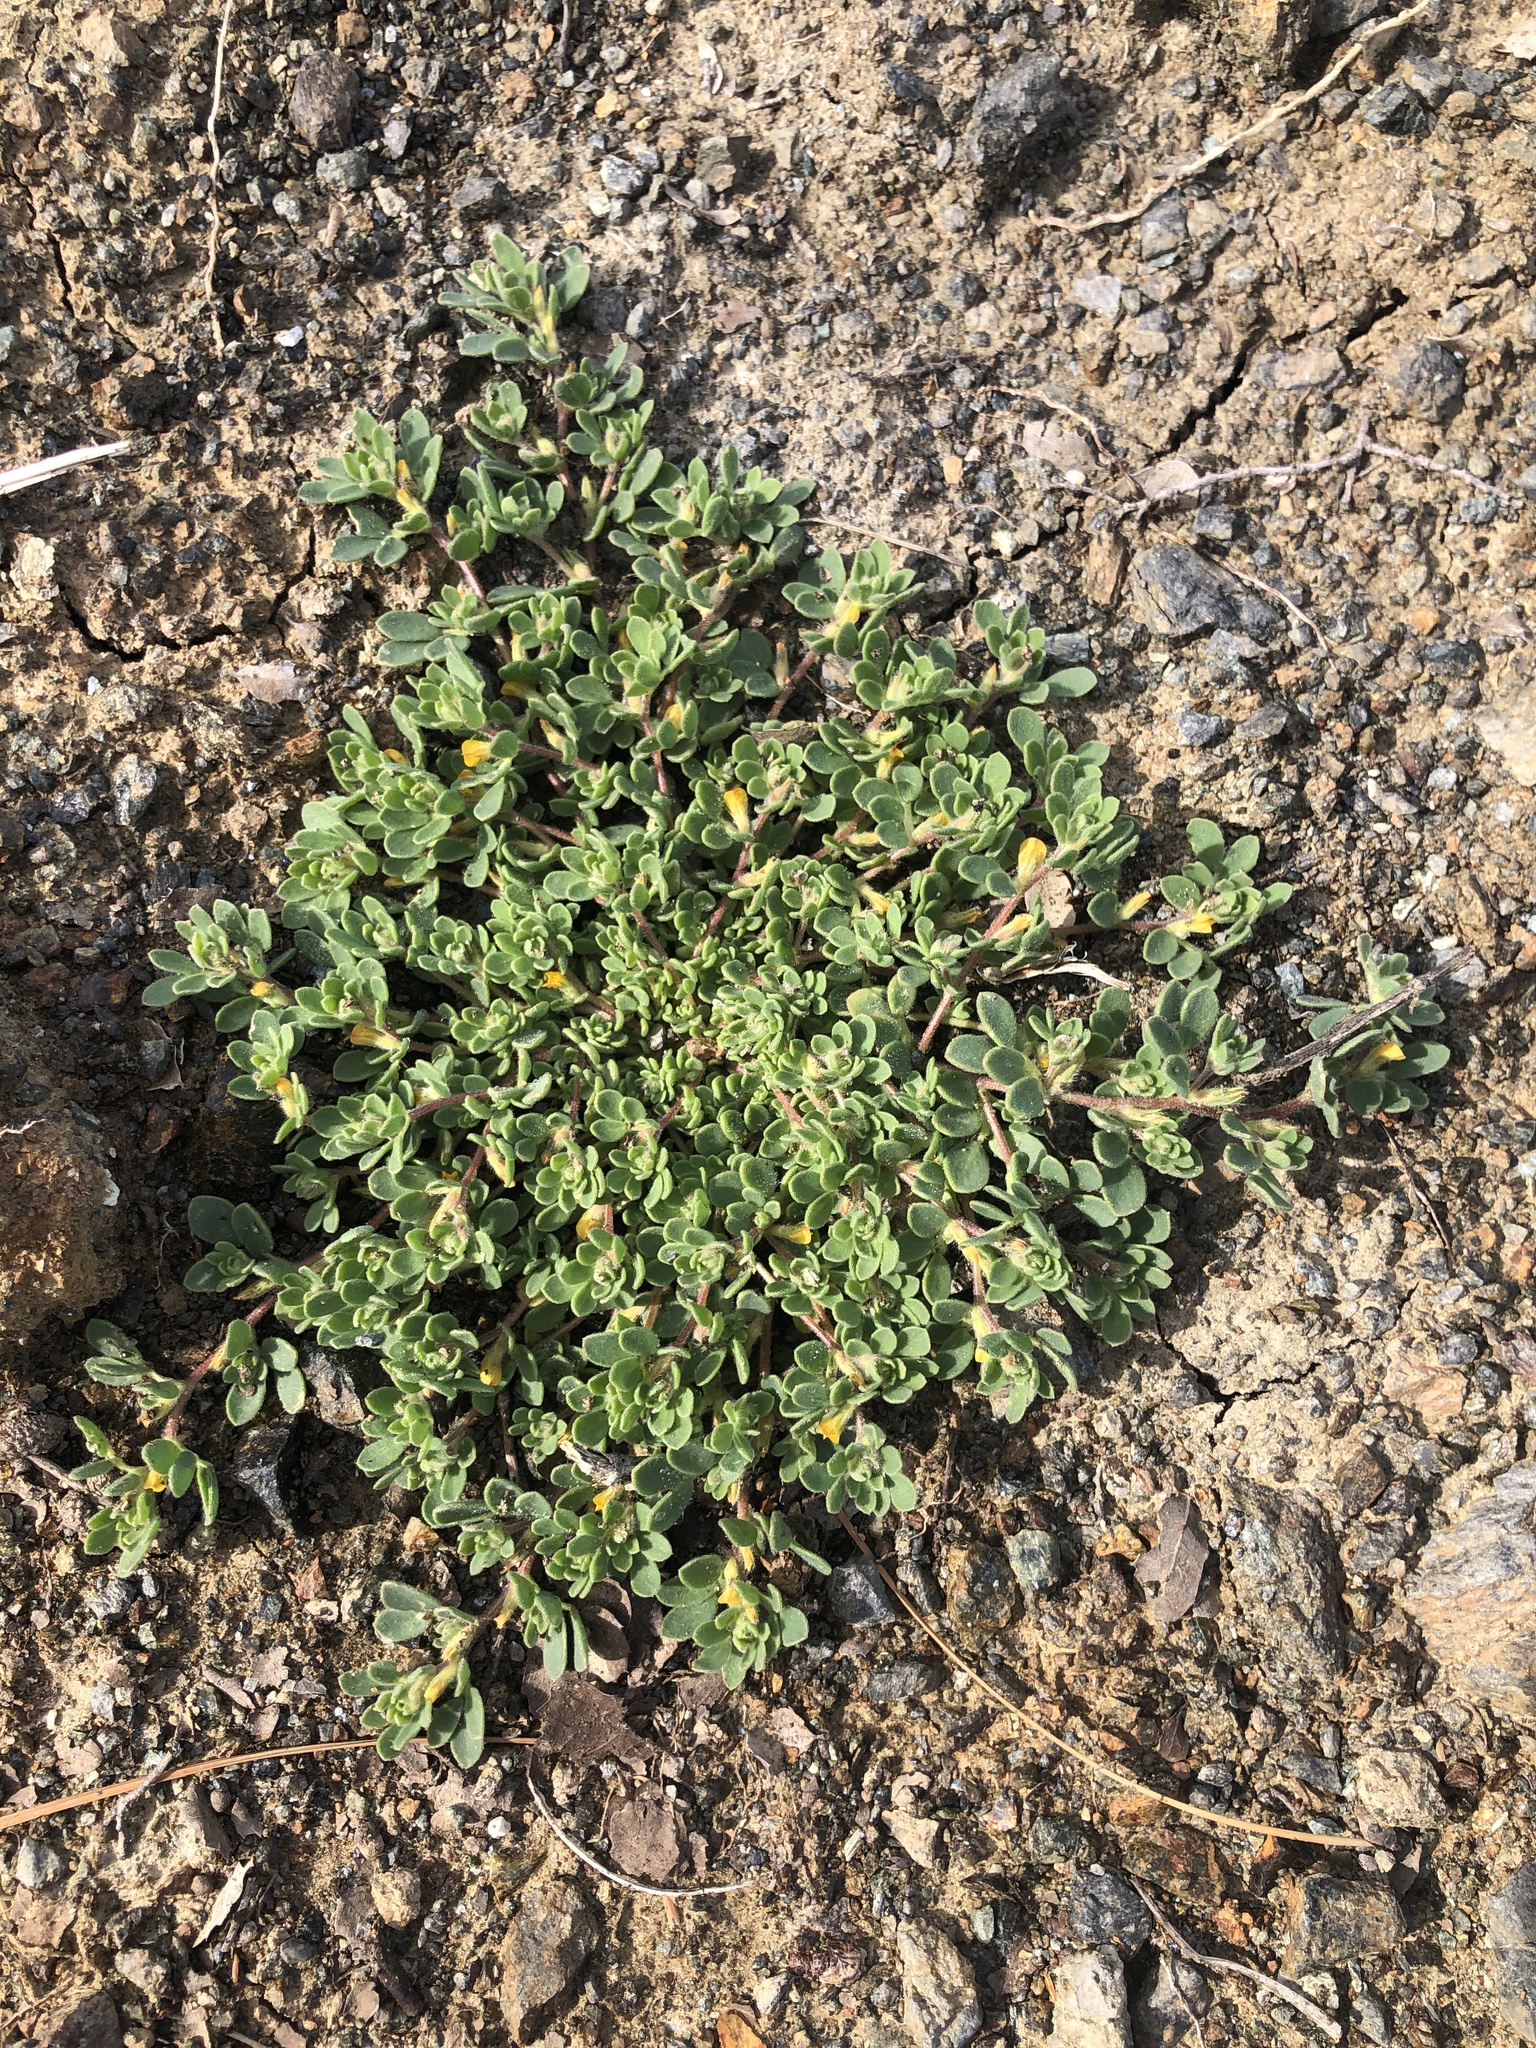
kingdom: Plantae
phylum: Tracheophyta
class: Magnoliopsida
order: Fabales
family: Fabaceae
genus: Acmispon
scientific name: Acmispon brachycarpus
